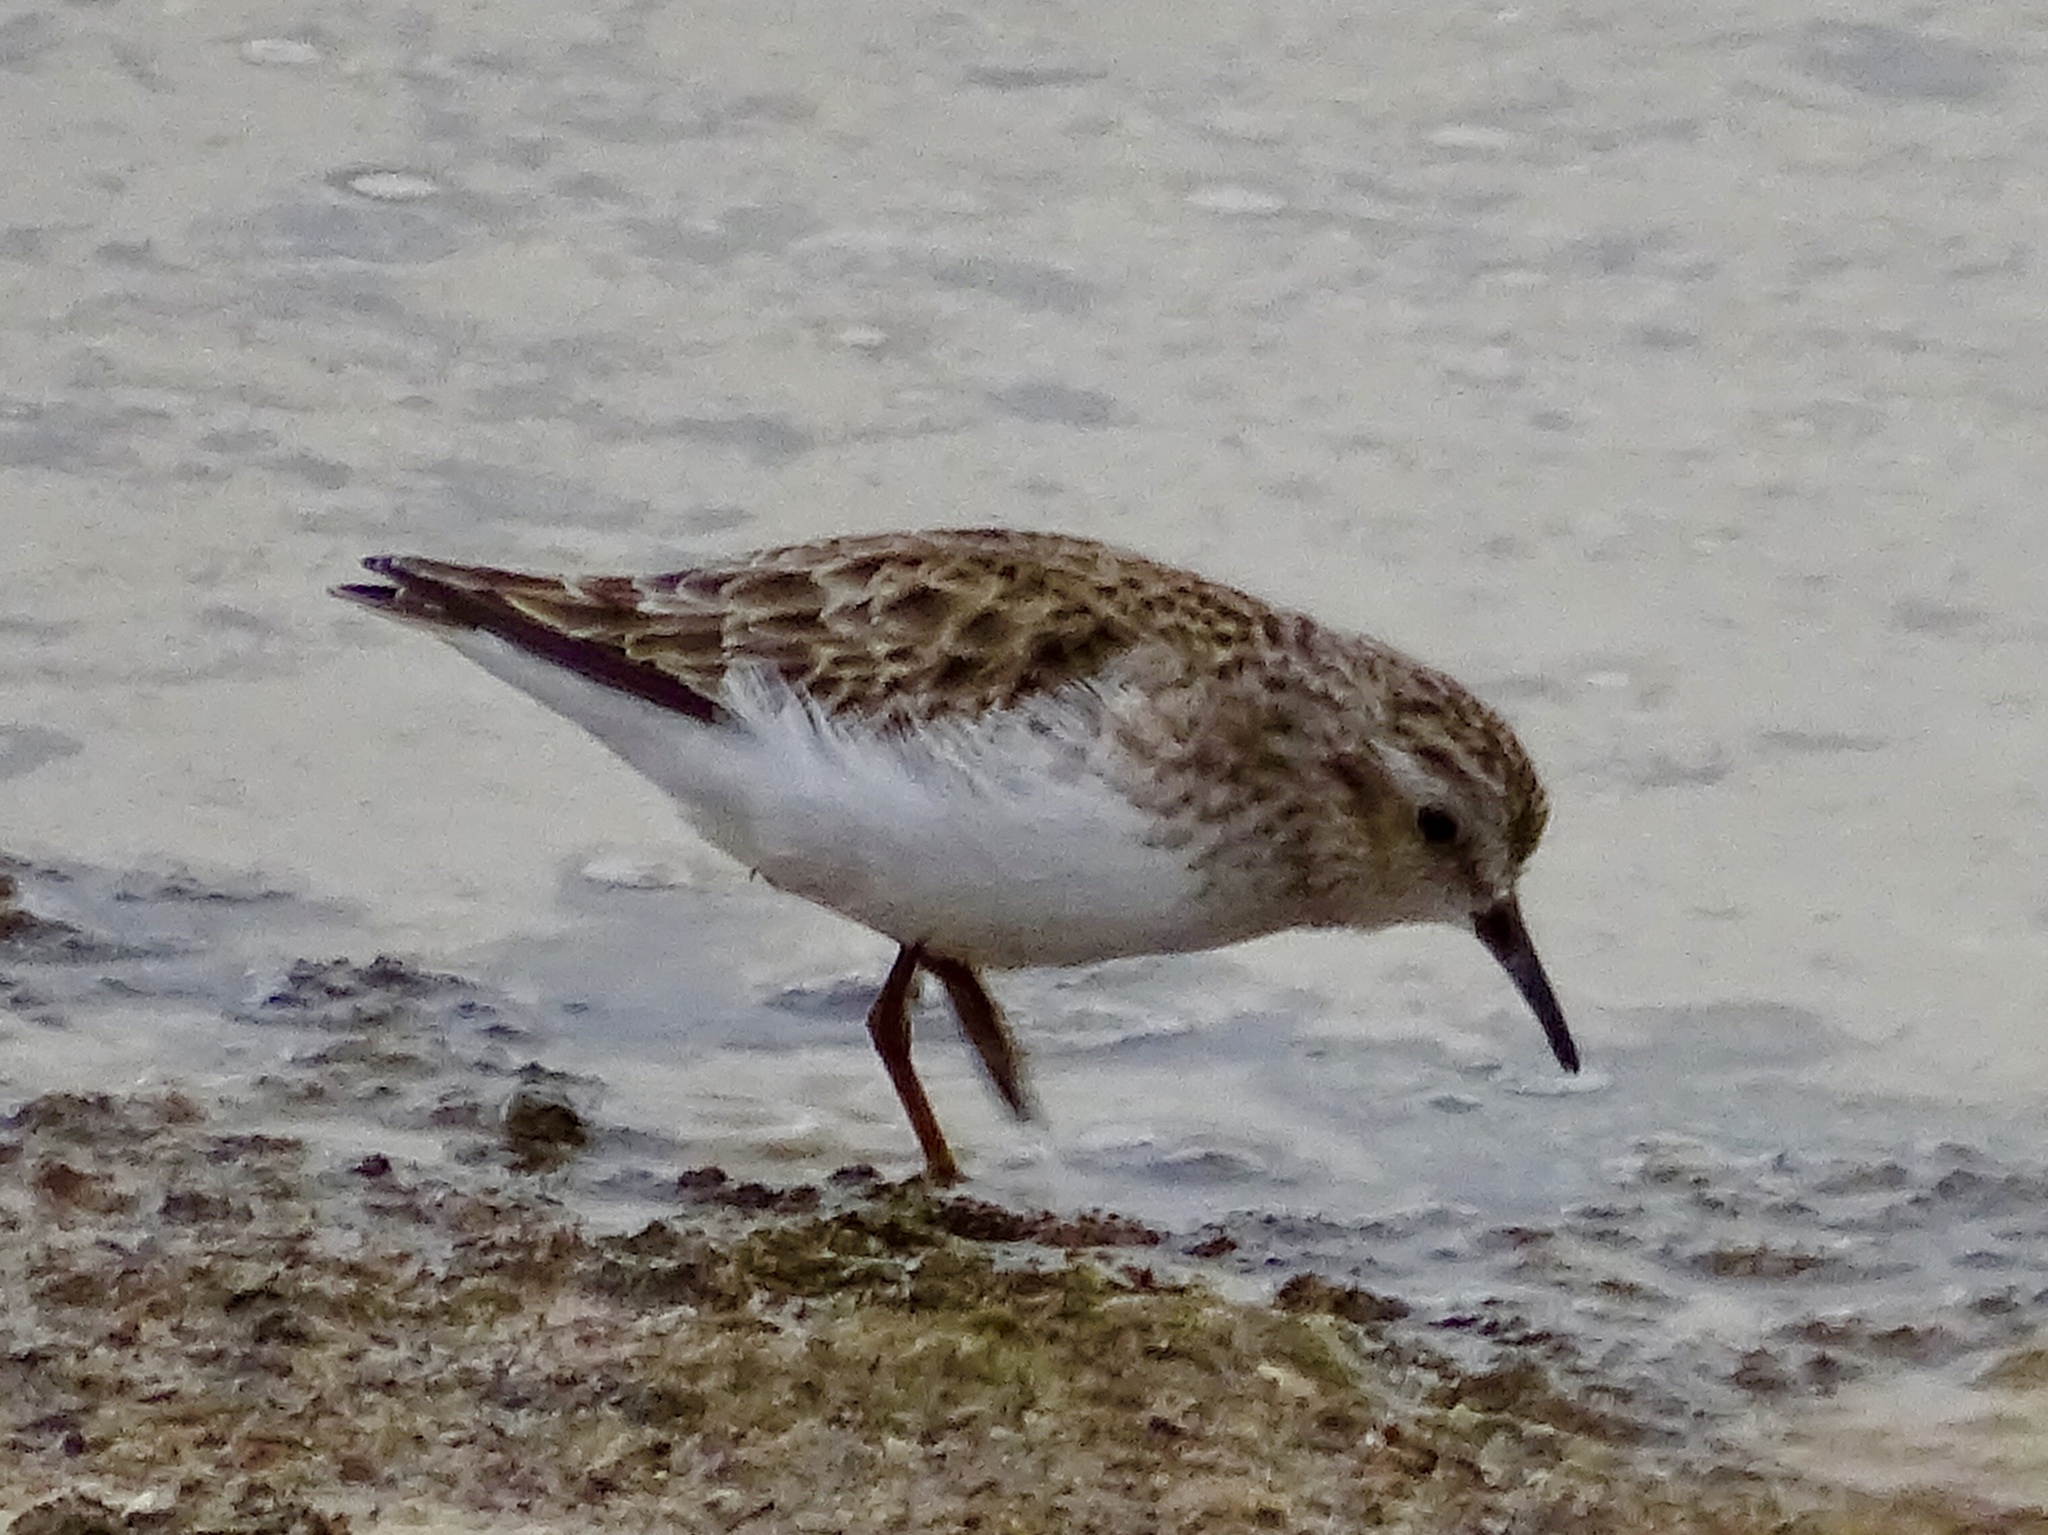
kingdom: Animalia
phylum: Chordata
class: Aves
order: Charadriiformes
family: Scolopacidae
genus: Calidris
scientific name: Calidris minutilla
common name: Least sandpiper
